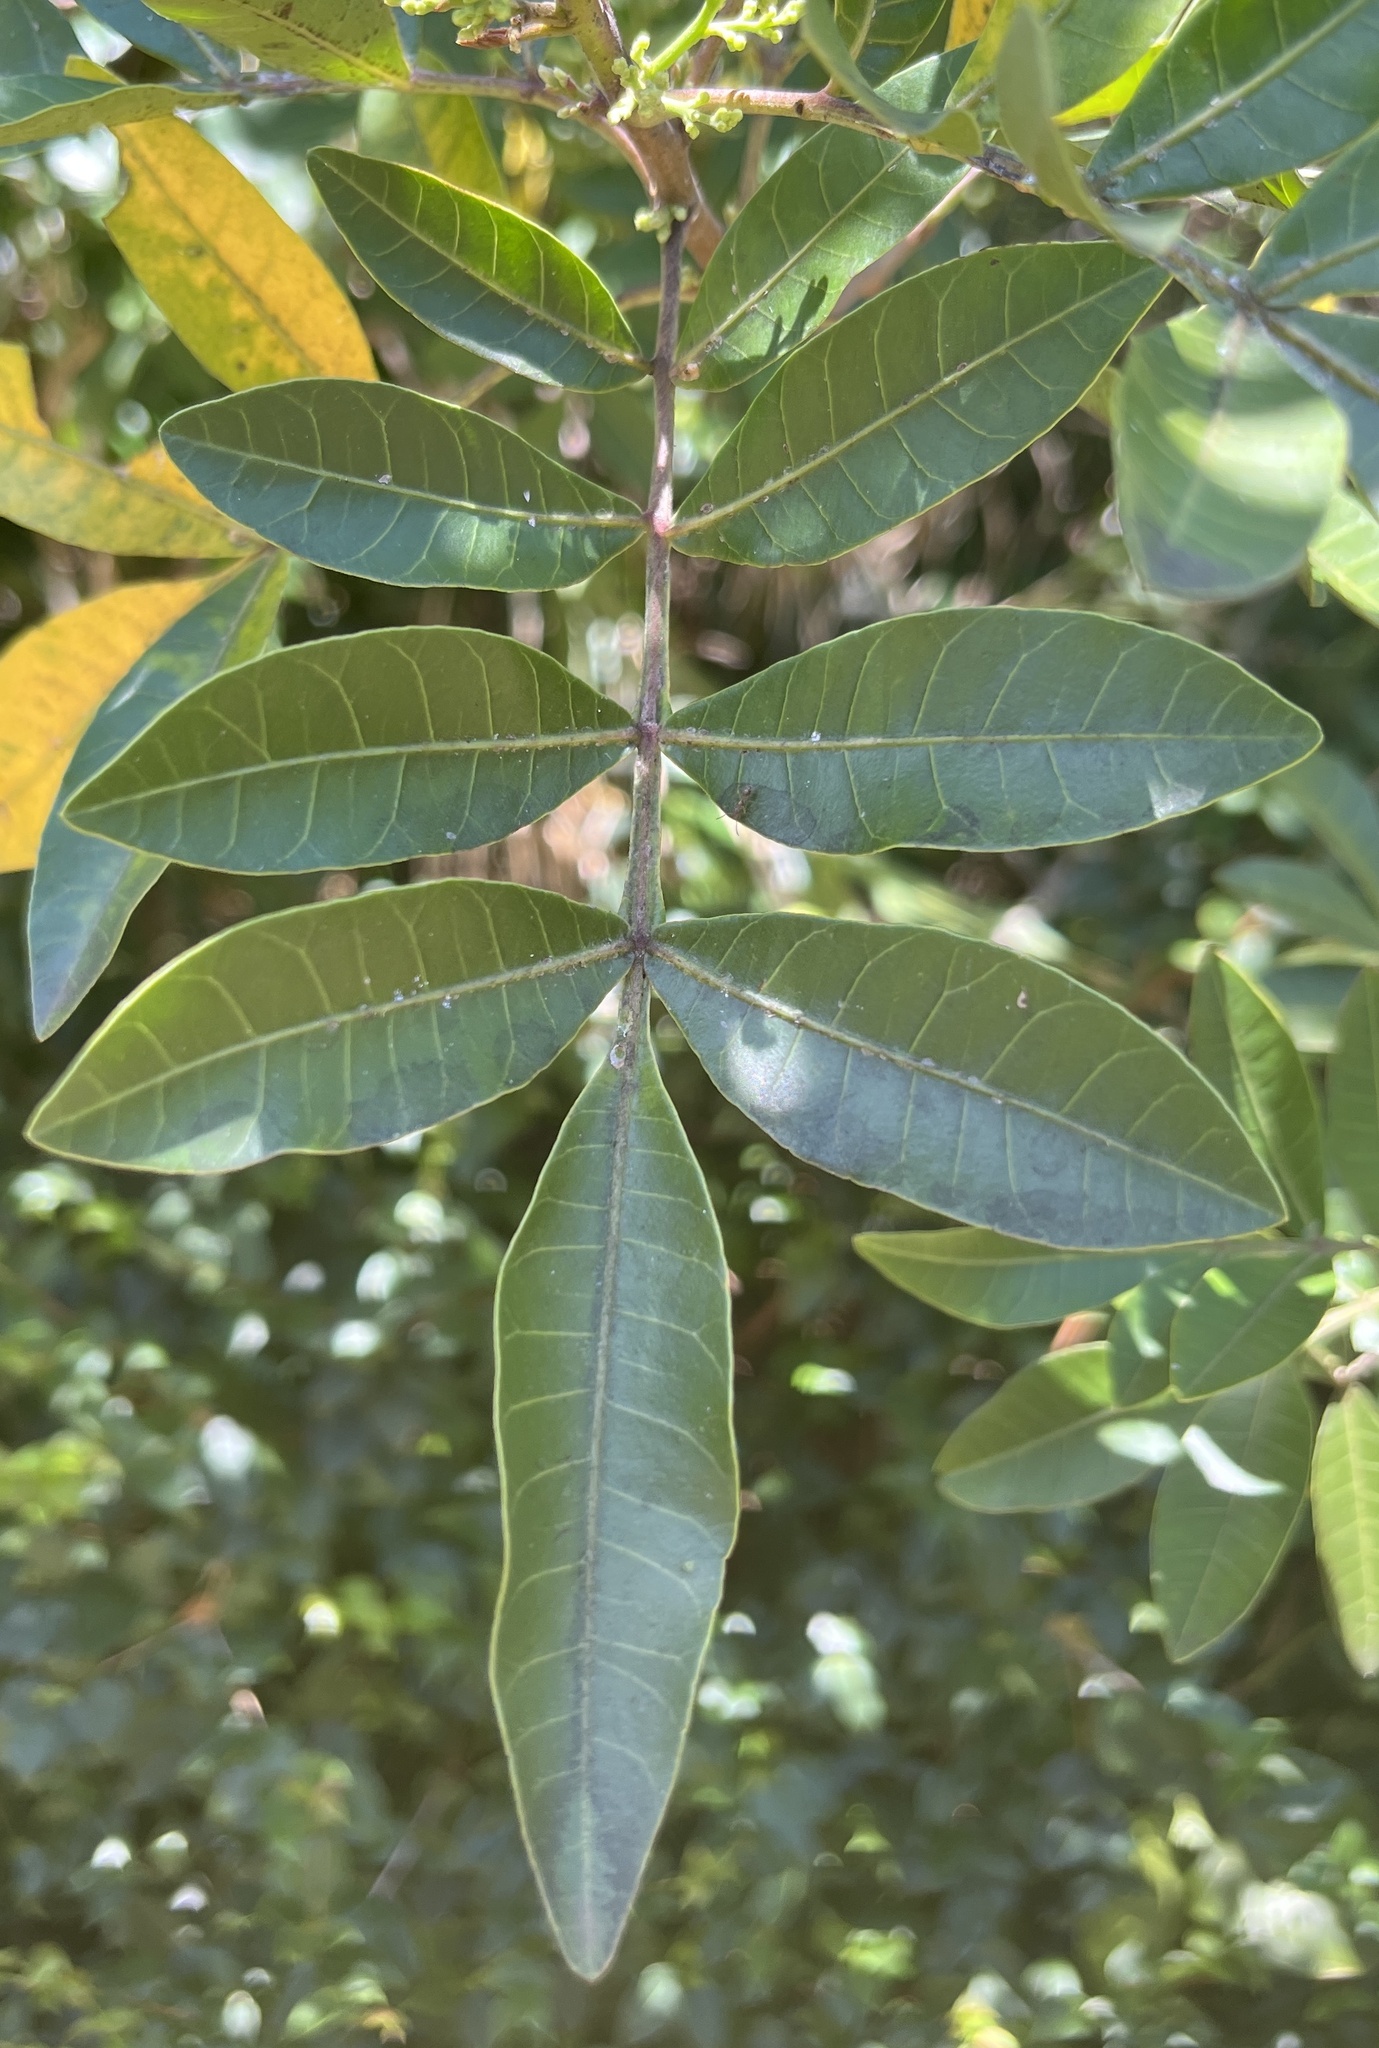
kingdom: Plantae
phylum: Tracheophyta
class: Magnoliopsida
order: Sapindales
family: Anacardiaceae
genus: Schinus
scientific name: Schinus terebinthifolia
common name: Brazilian peppertree
